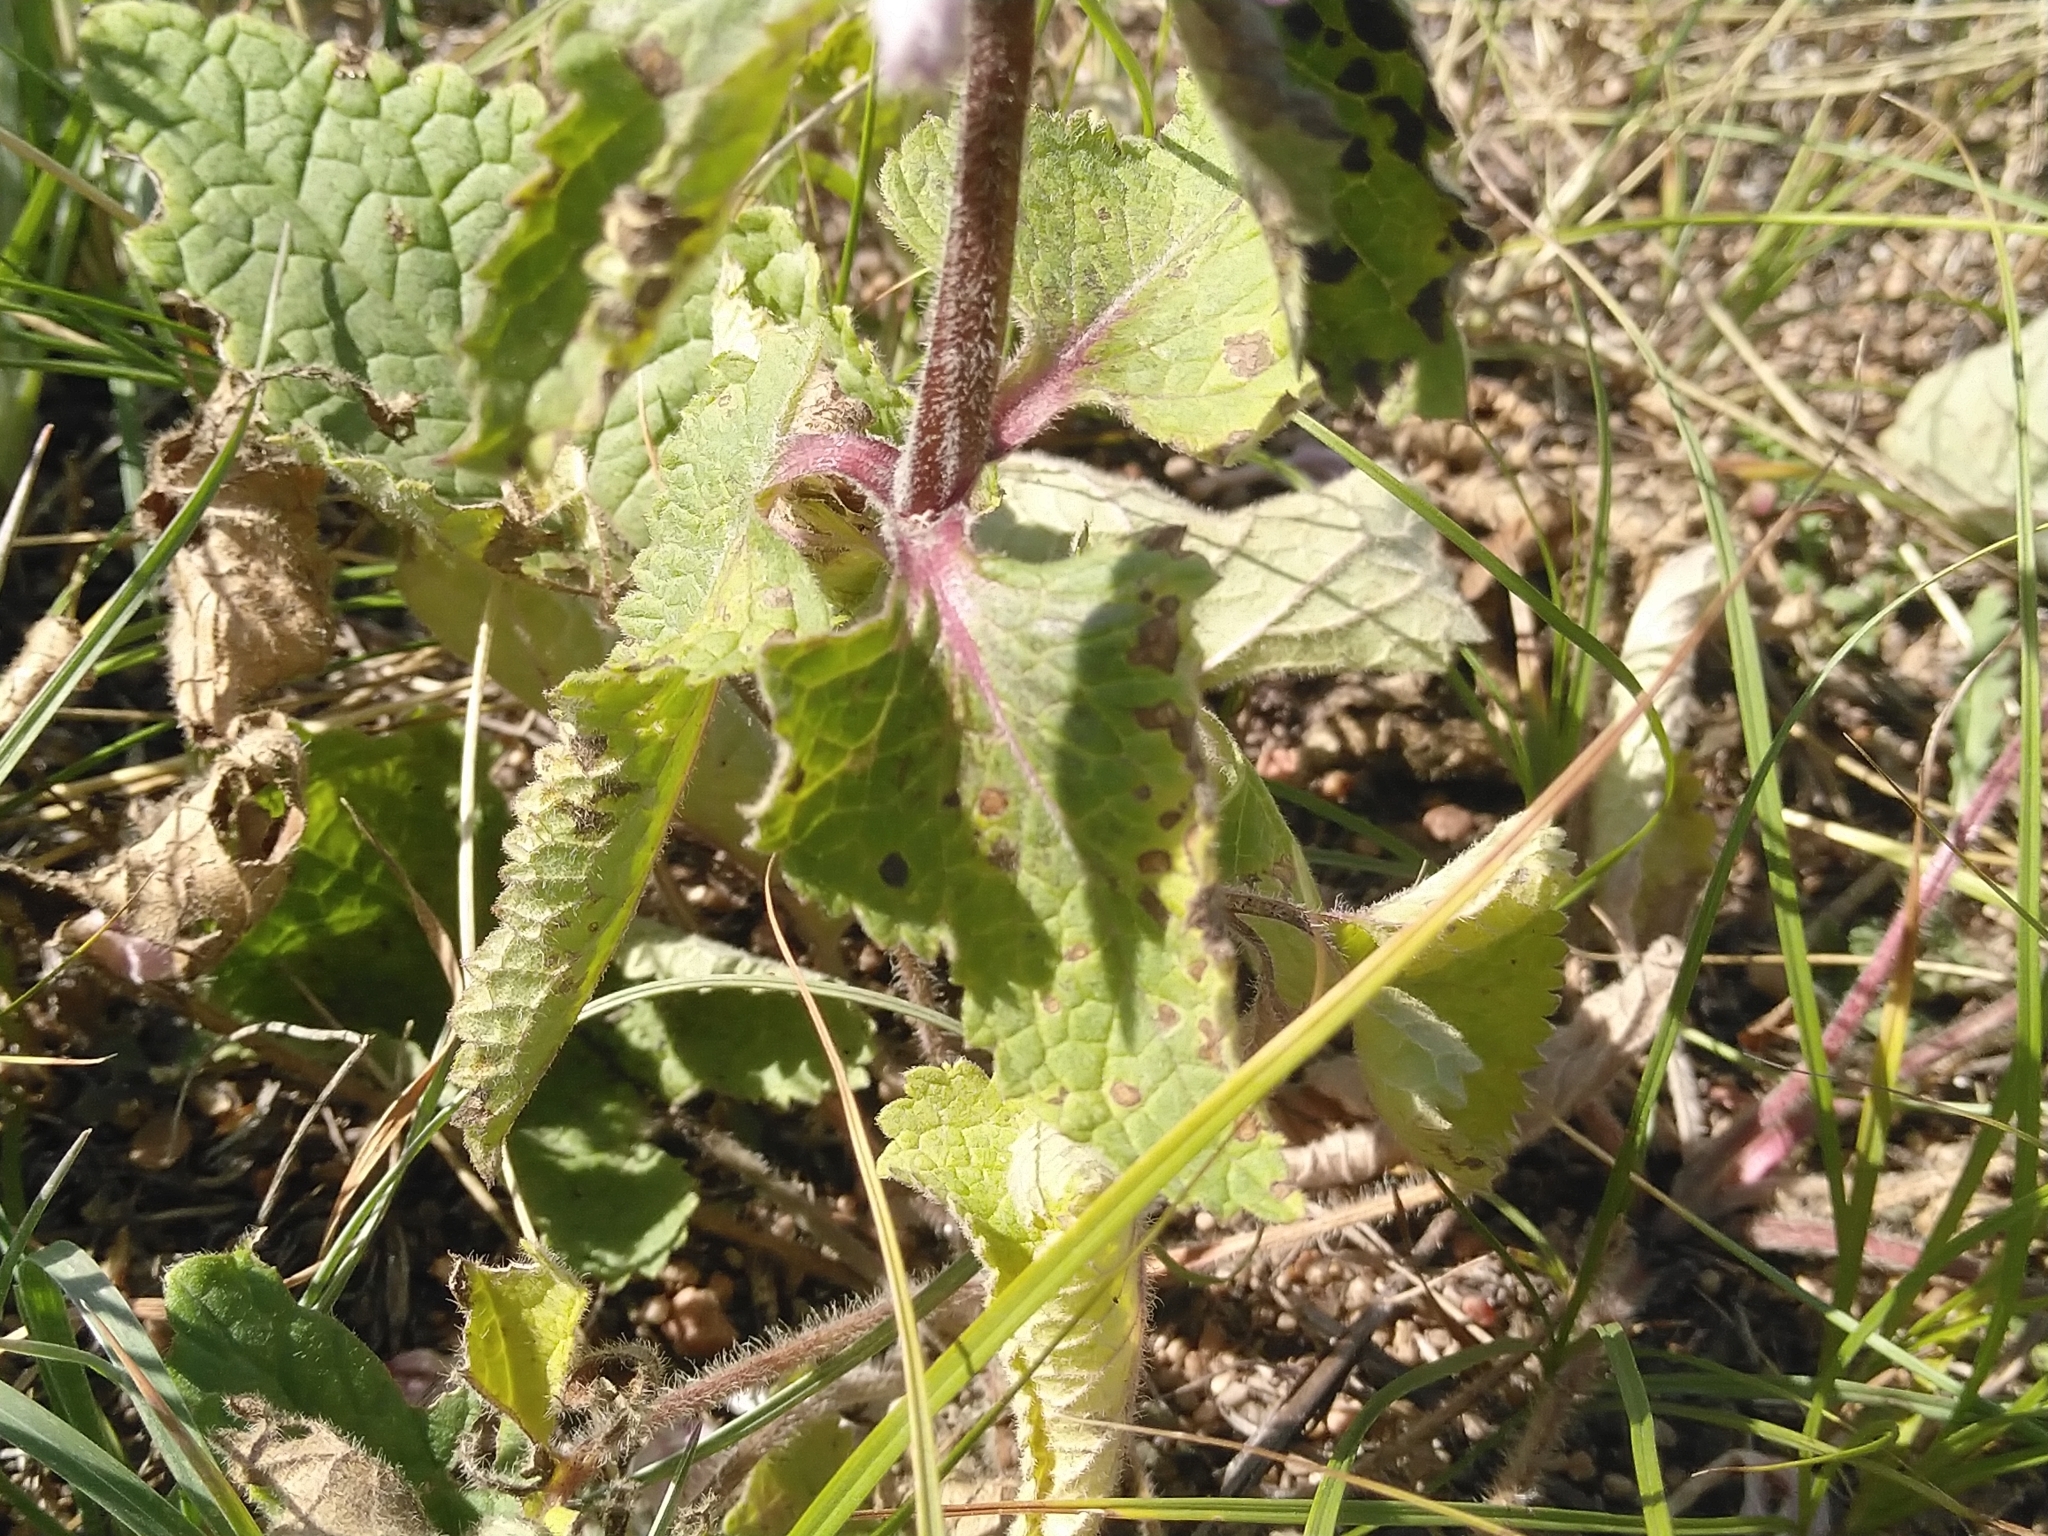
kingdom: Plantae
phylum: Tracheophyta
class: Magnoliopsida
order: Lamiales
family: Lamiaceae
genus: Phlomoides
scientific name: Phlomoides tuberosa
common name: Tuberous jerusalem sage
